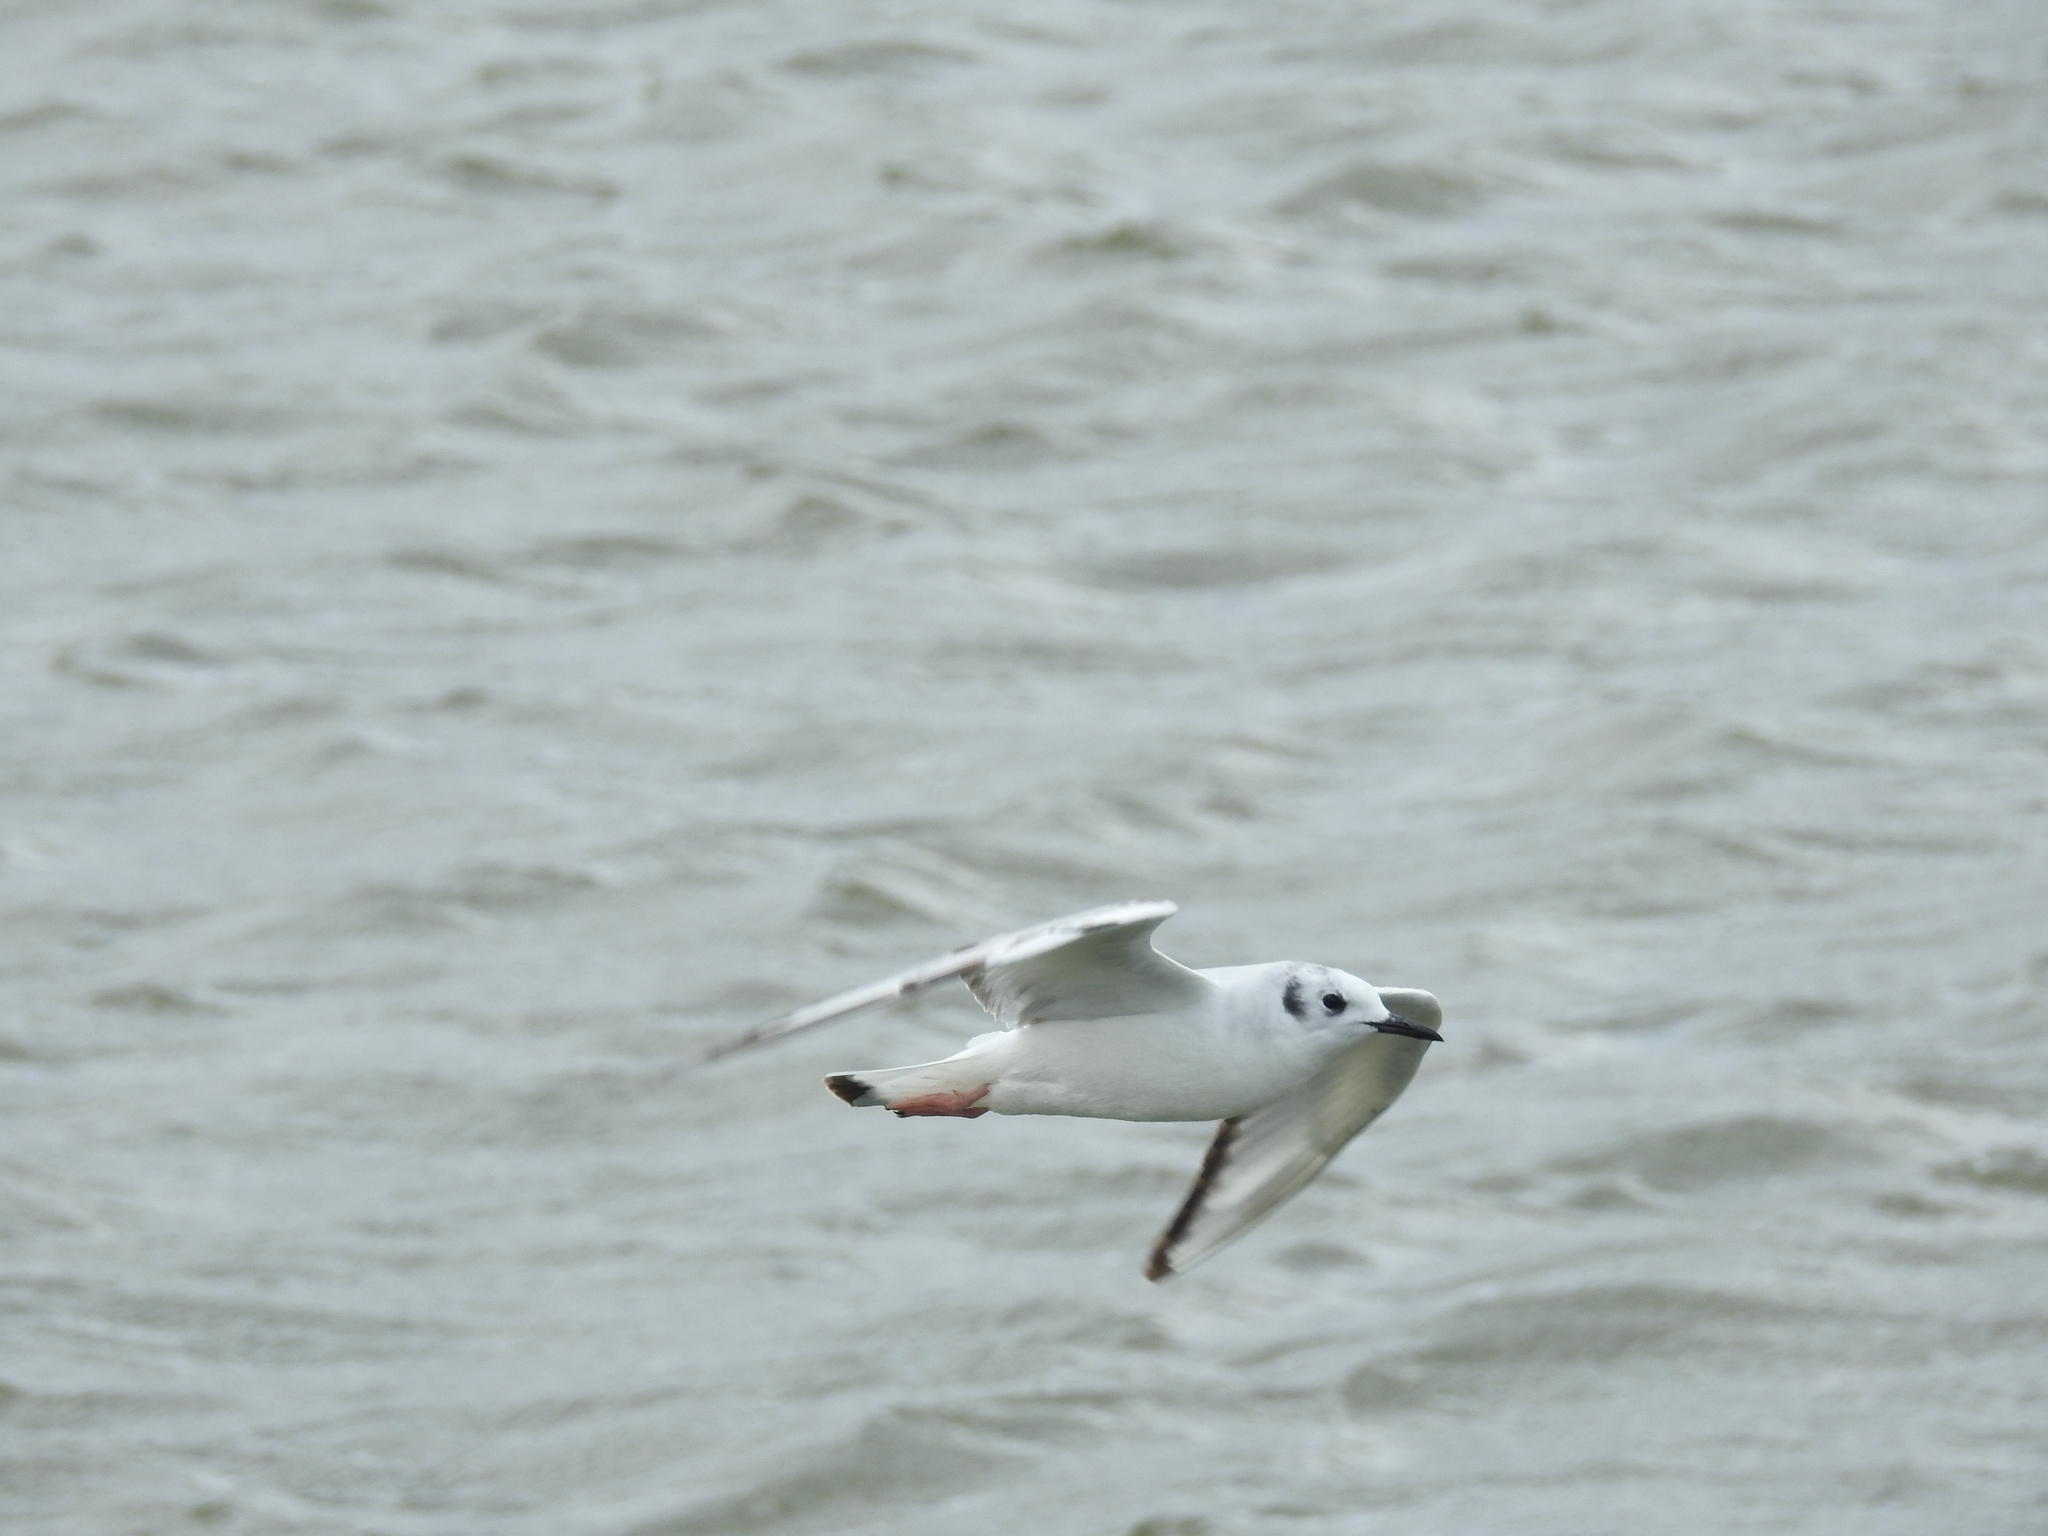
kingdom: Animalia
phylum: Chordata
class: Aves
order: Charadriiformes
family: Laridae
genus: Chroicocephalus
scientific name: Chroicocephalus philadelphia
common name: Bonaparte's gull
